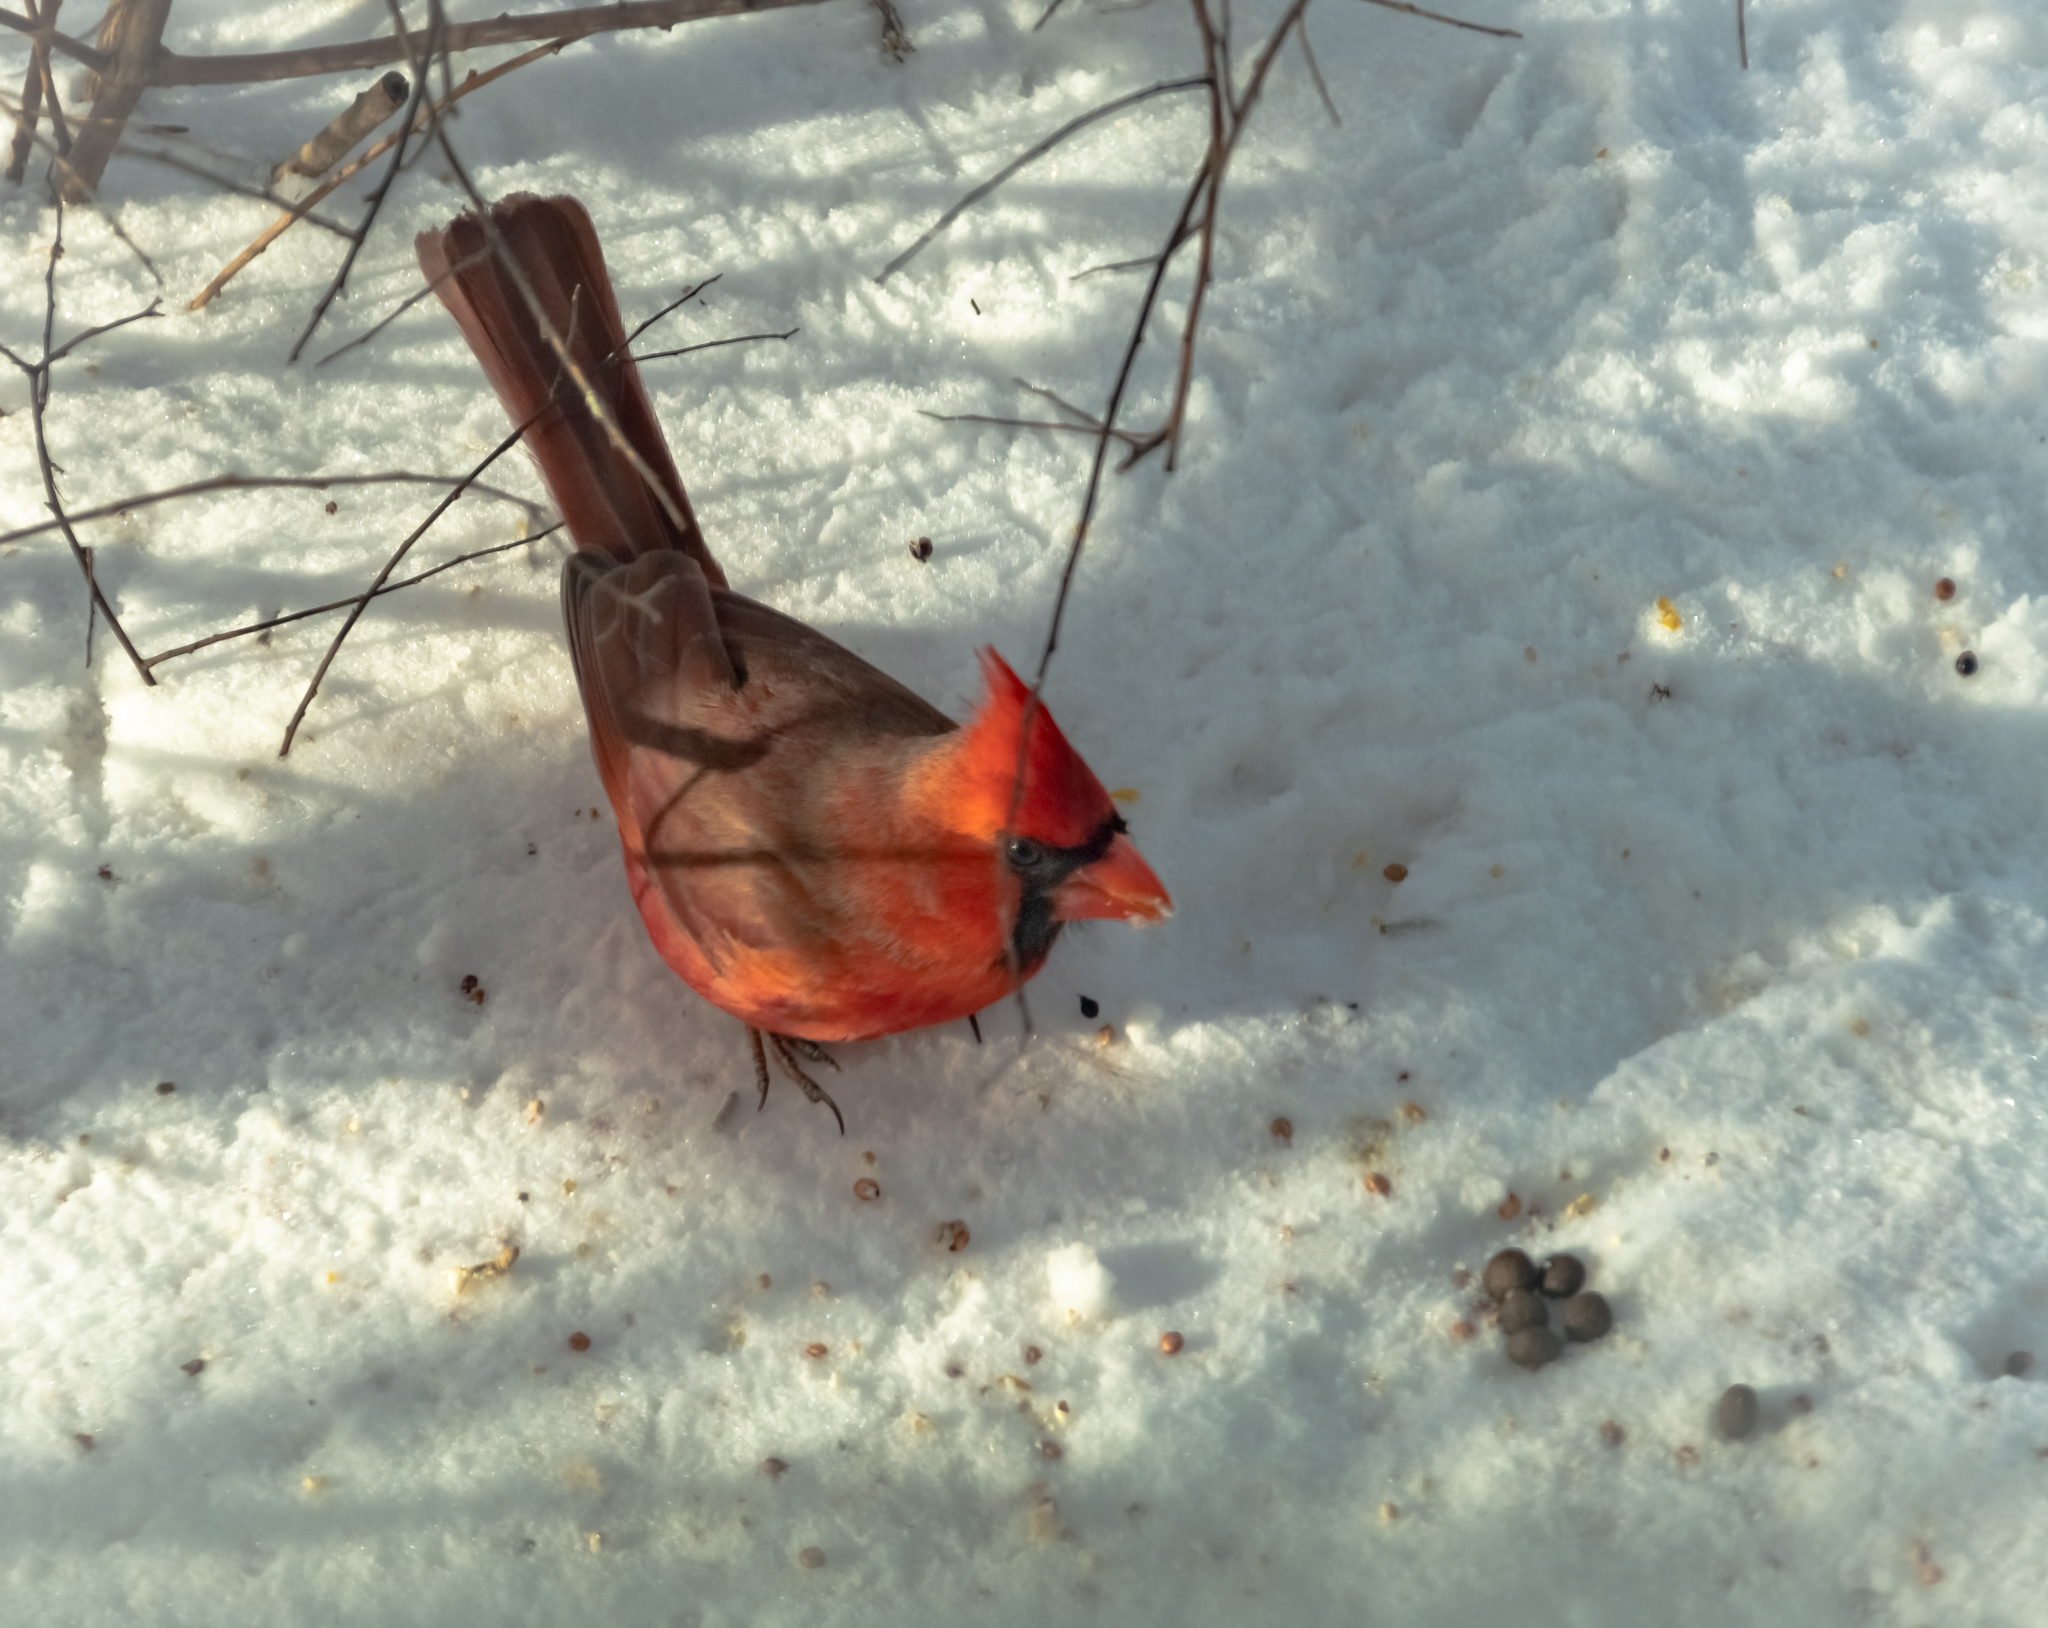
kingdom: Animalia
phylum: Chordata
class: Aves
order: Passeriformes
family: Cardinalidae
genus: Cardinalis
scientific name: Cardinalis cardinalis
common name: Northern cardinal
